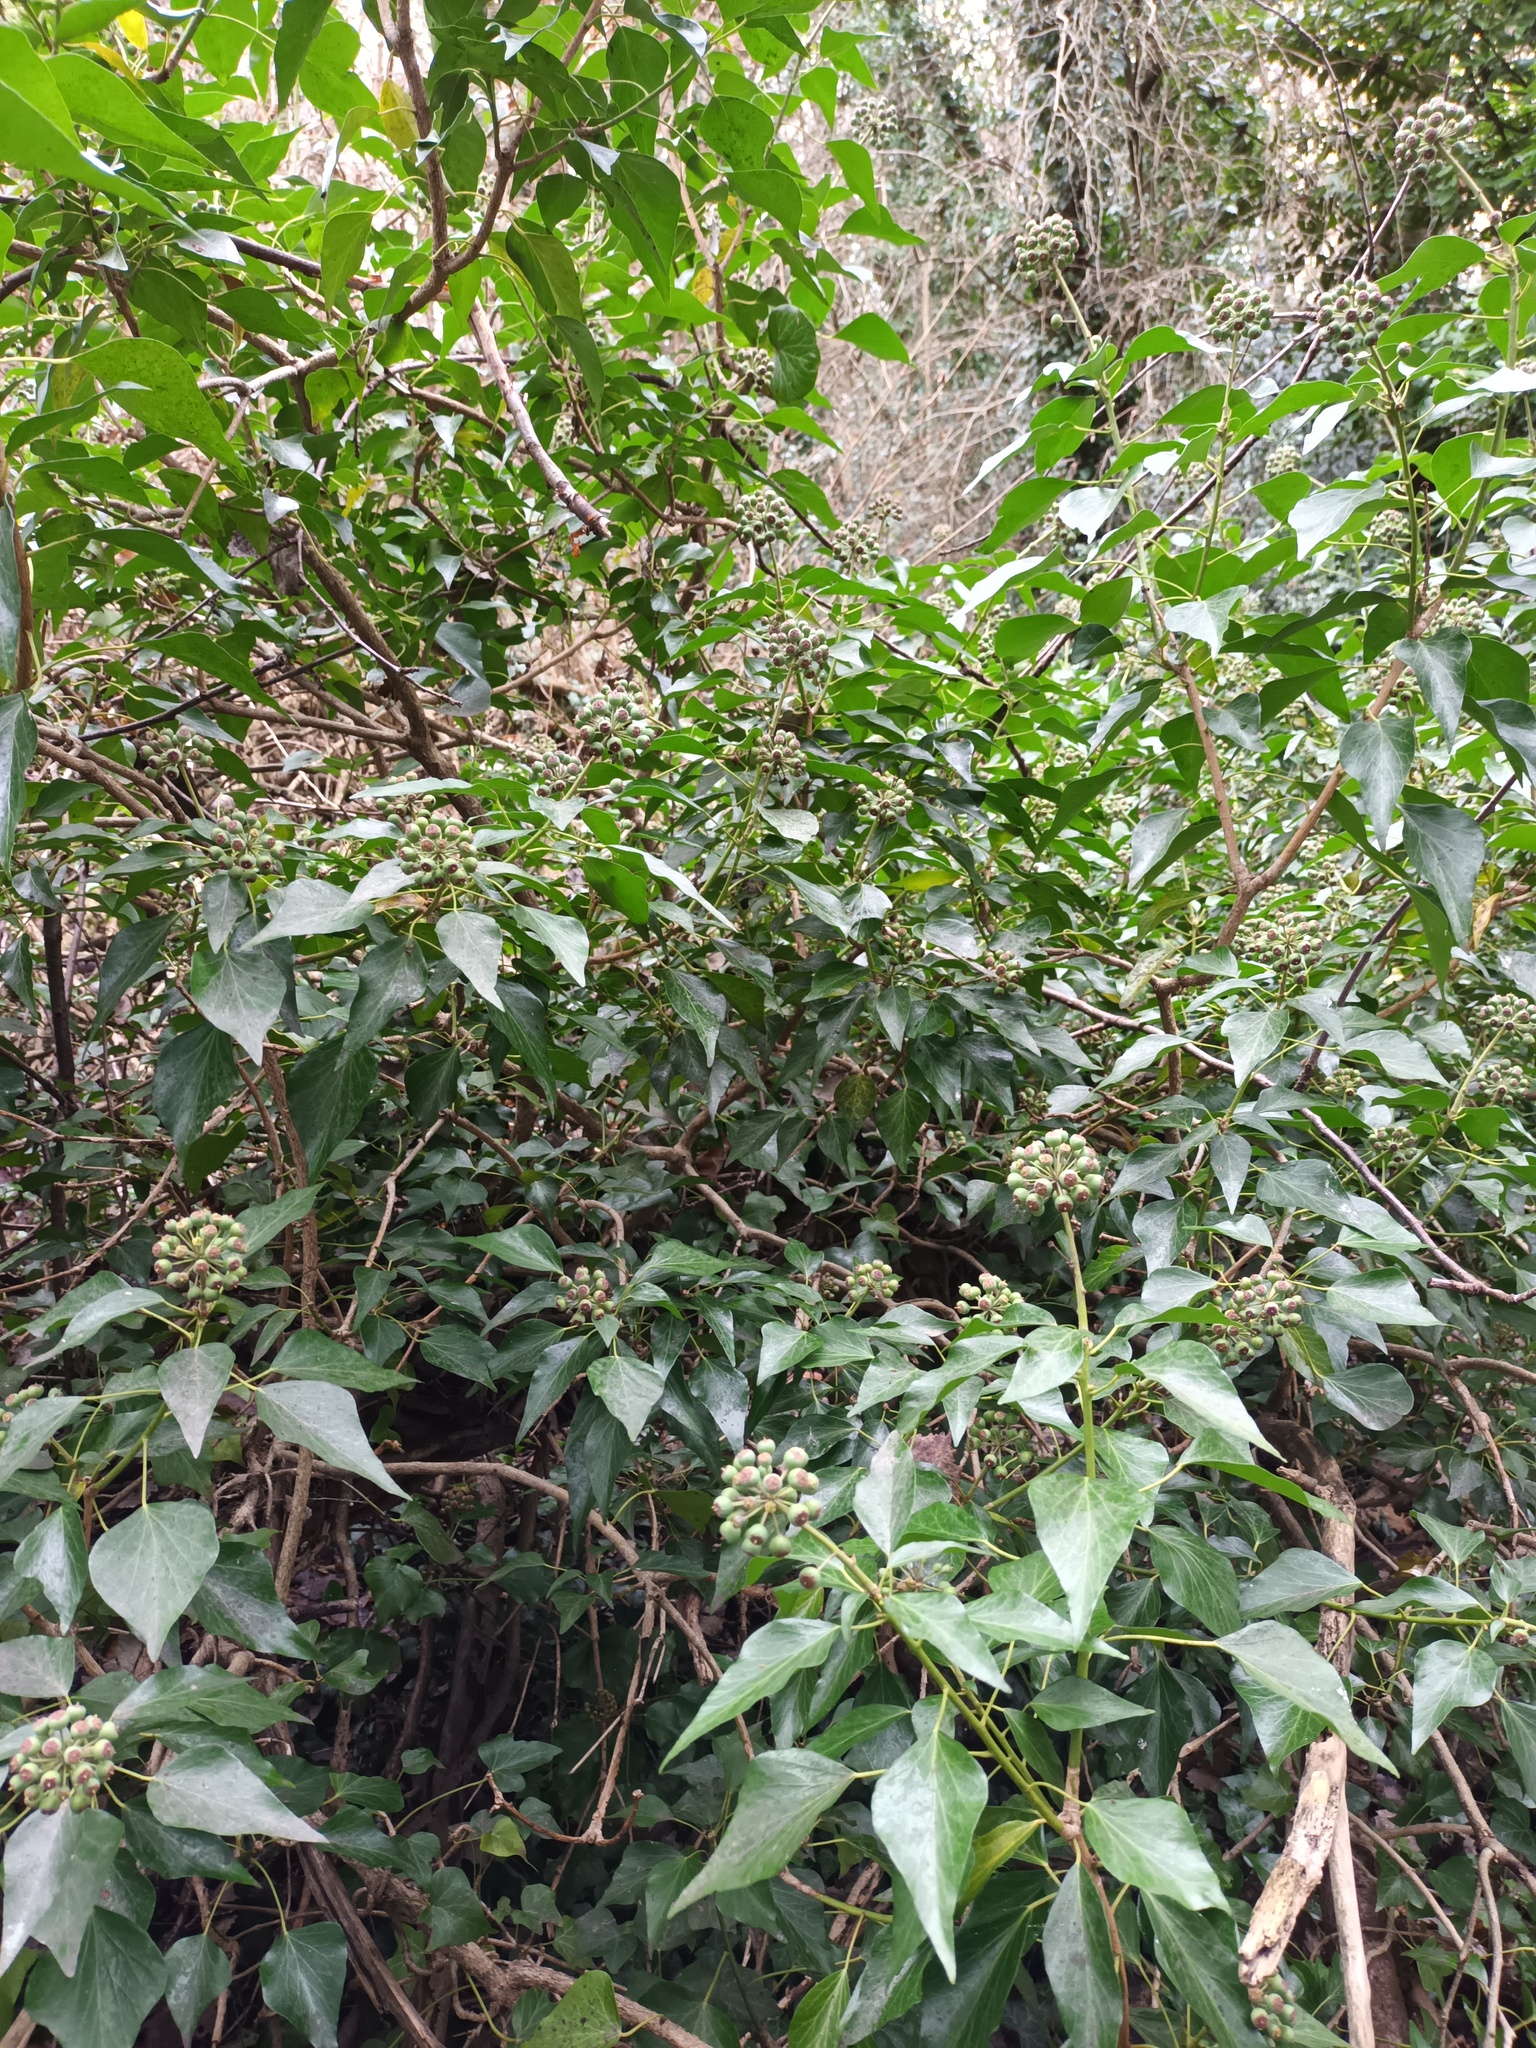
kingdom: Plantae
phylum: Tracheophyta
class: Magnoliopsida
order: Apiales
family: Araliaceae
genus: Hedera
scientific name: Hedera helix
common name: Ivy
